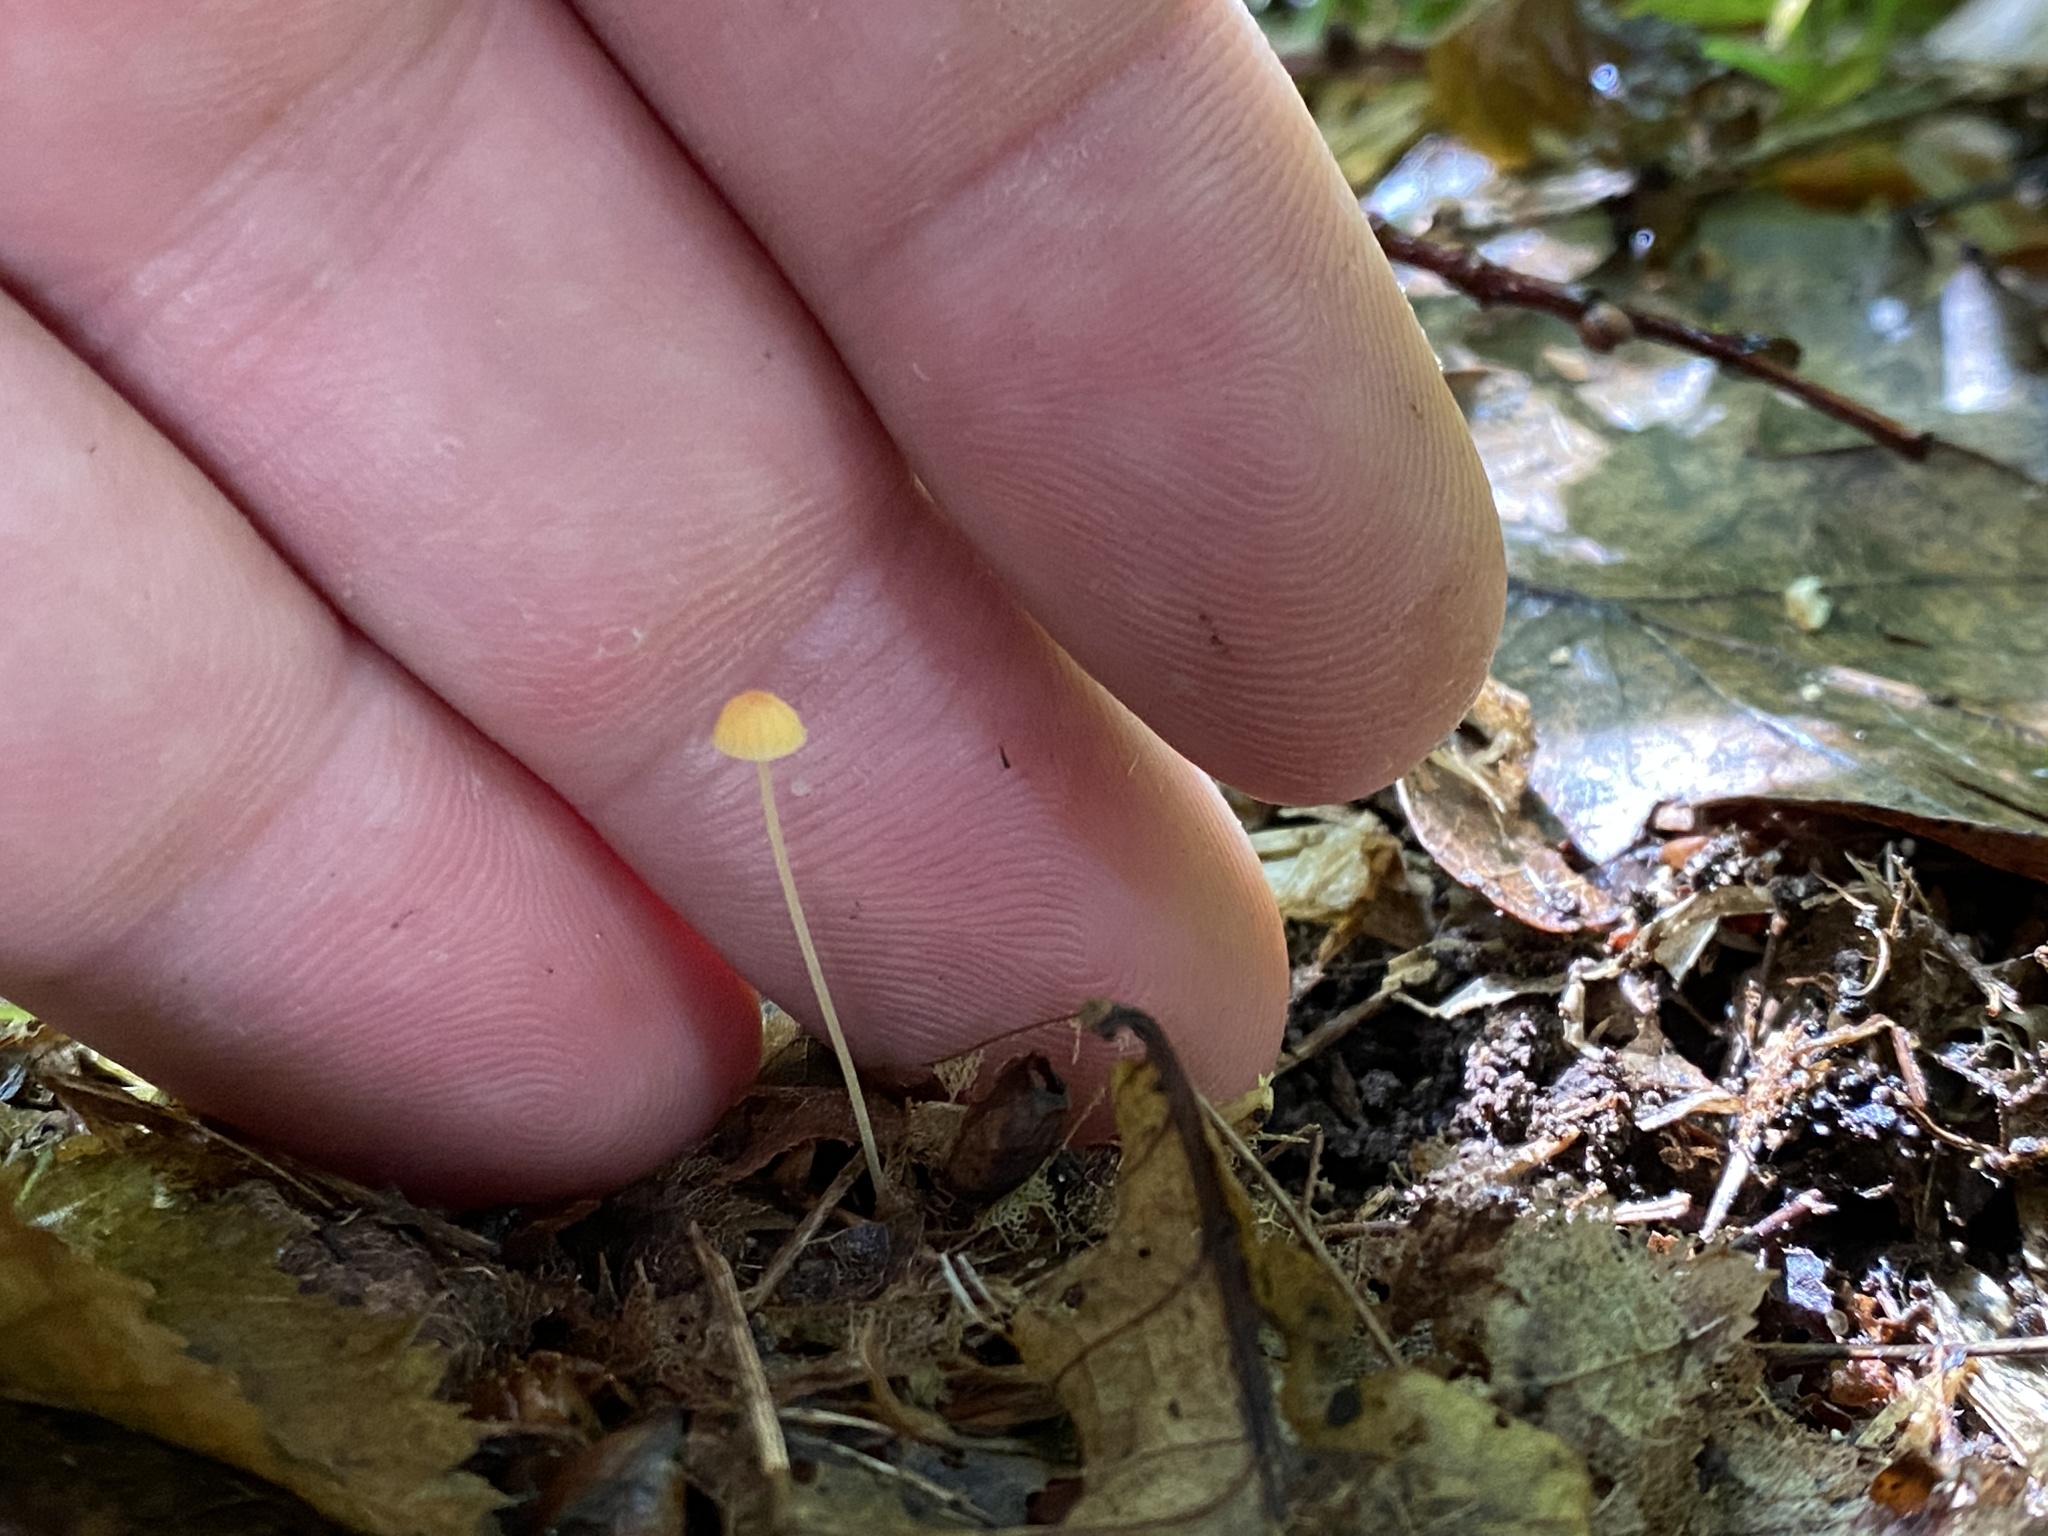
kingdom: Fungi
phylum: Basidiomycota
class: Agaricomycetes
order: Agaricales
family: Mycenaceae
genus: Mycena
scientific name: Mycena acicula
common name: Orange bonnet
